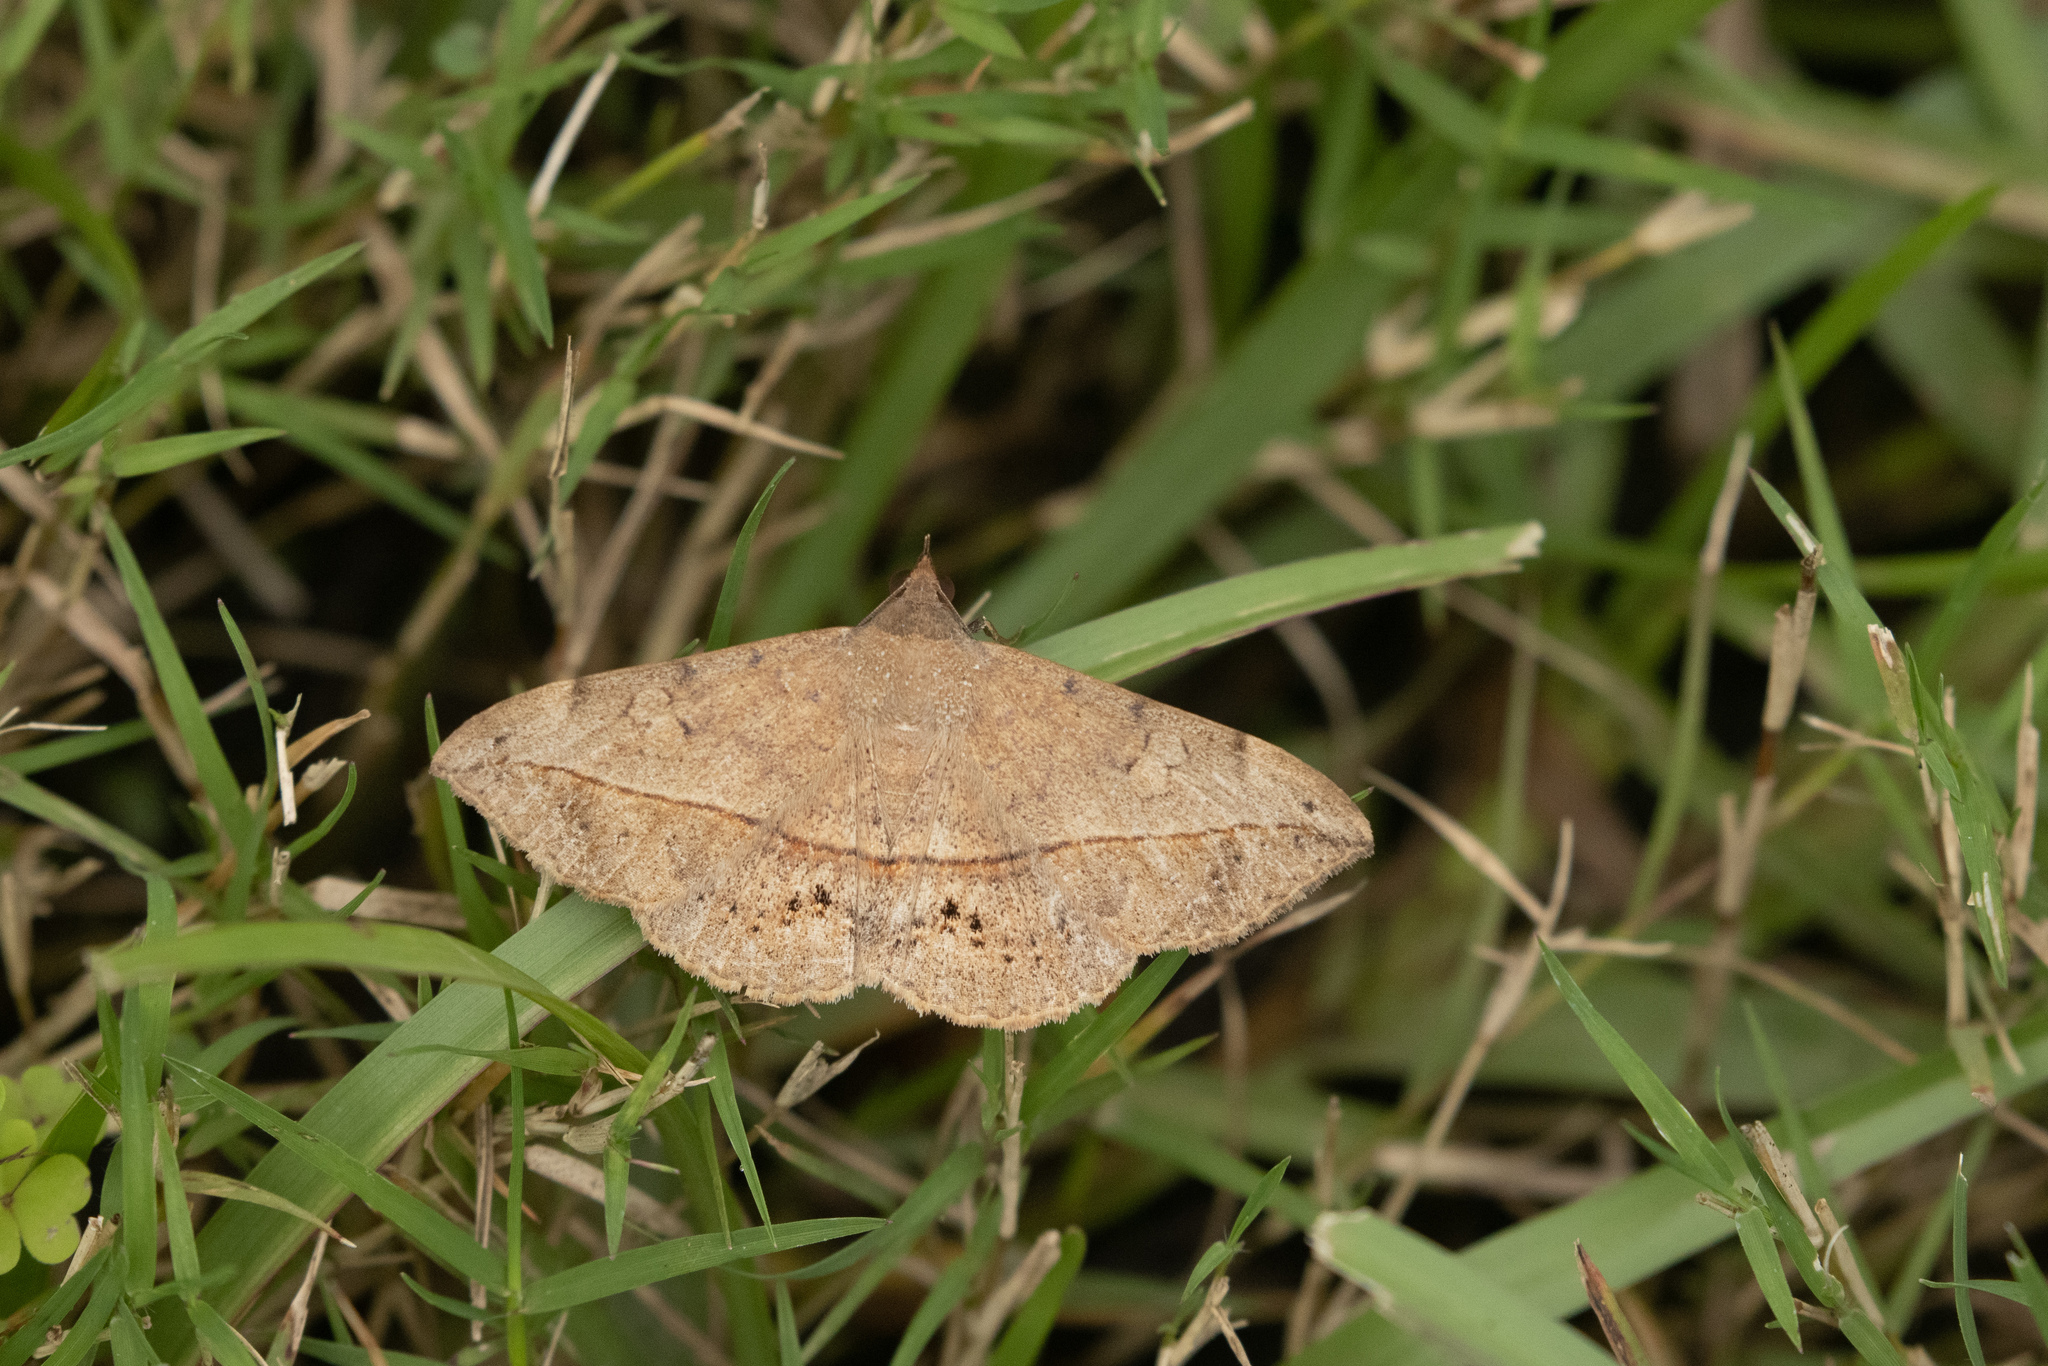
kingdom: Animalia
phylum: Arthropoda
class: Insecta
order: Lepidoptera
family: Erebidae
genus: Anticarsia
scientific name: Anticarsia gemmatalis
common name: Cutworm moth
